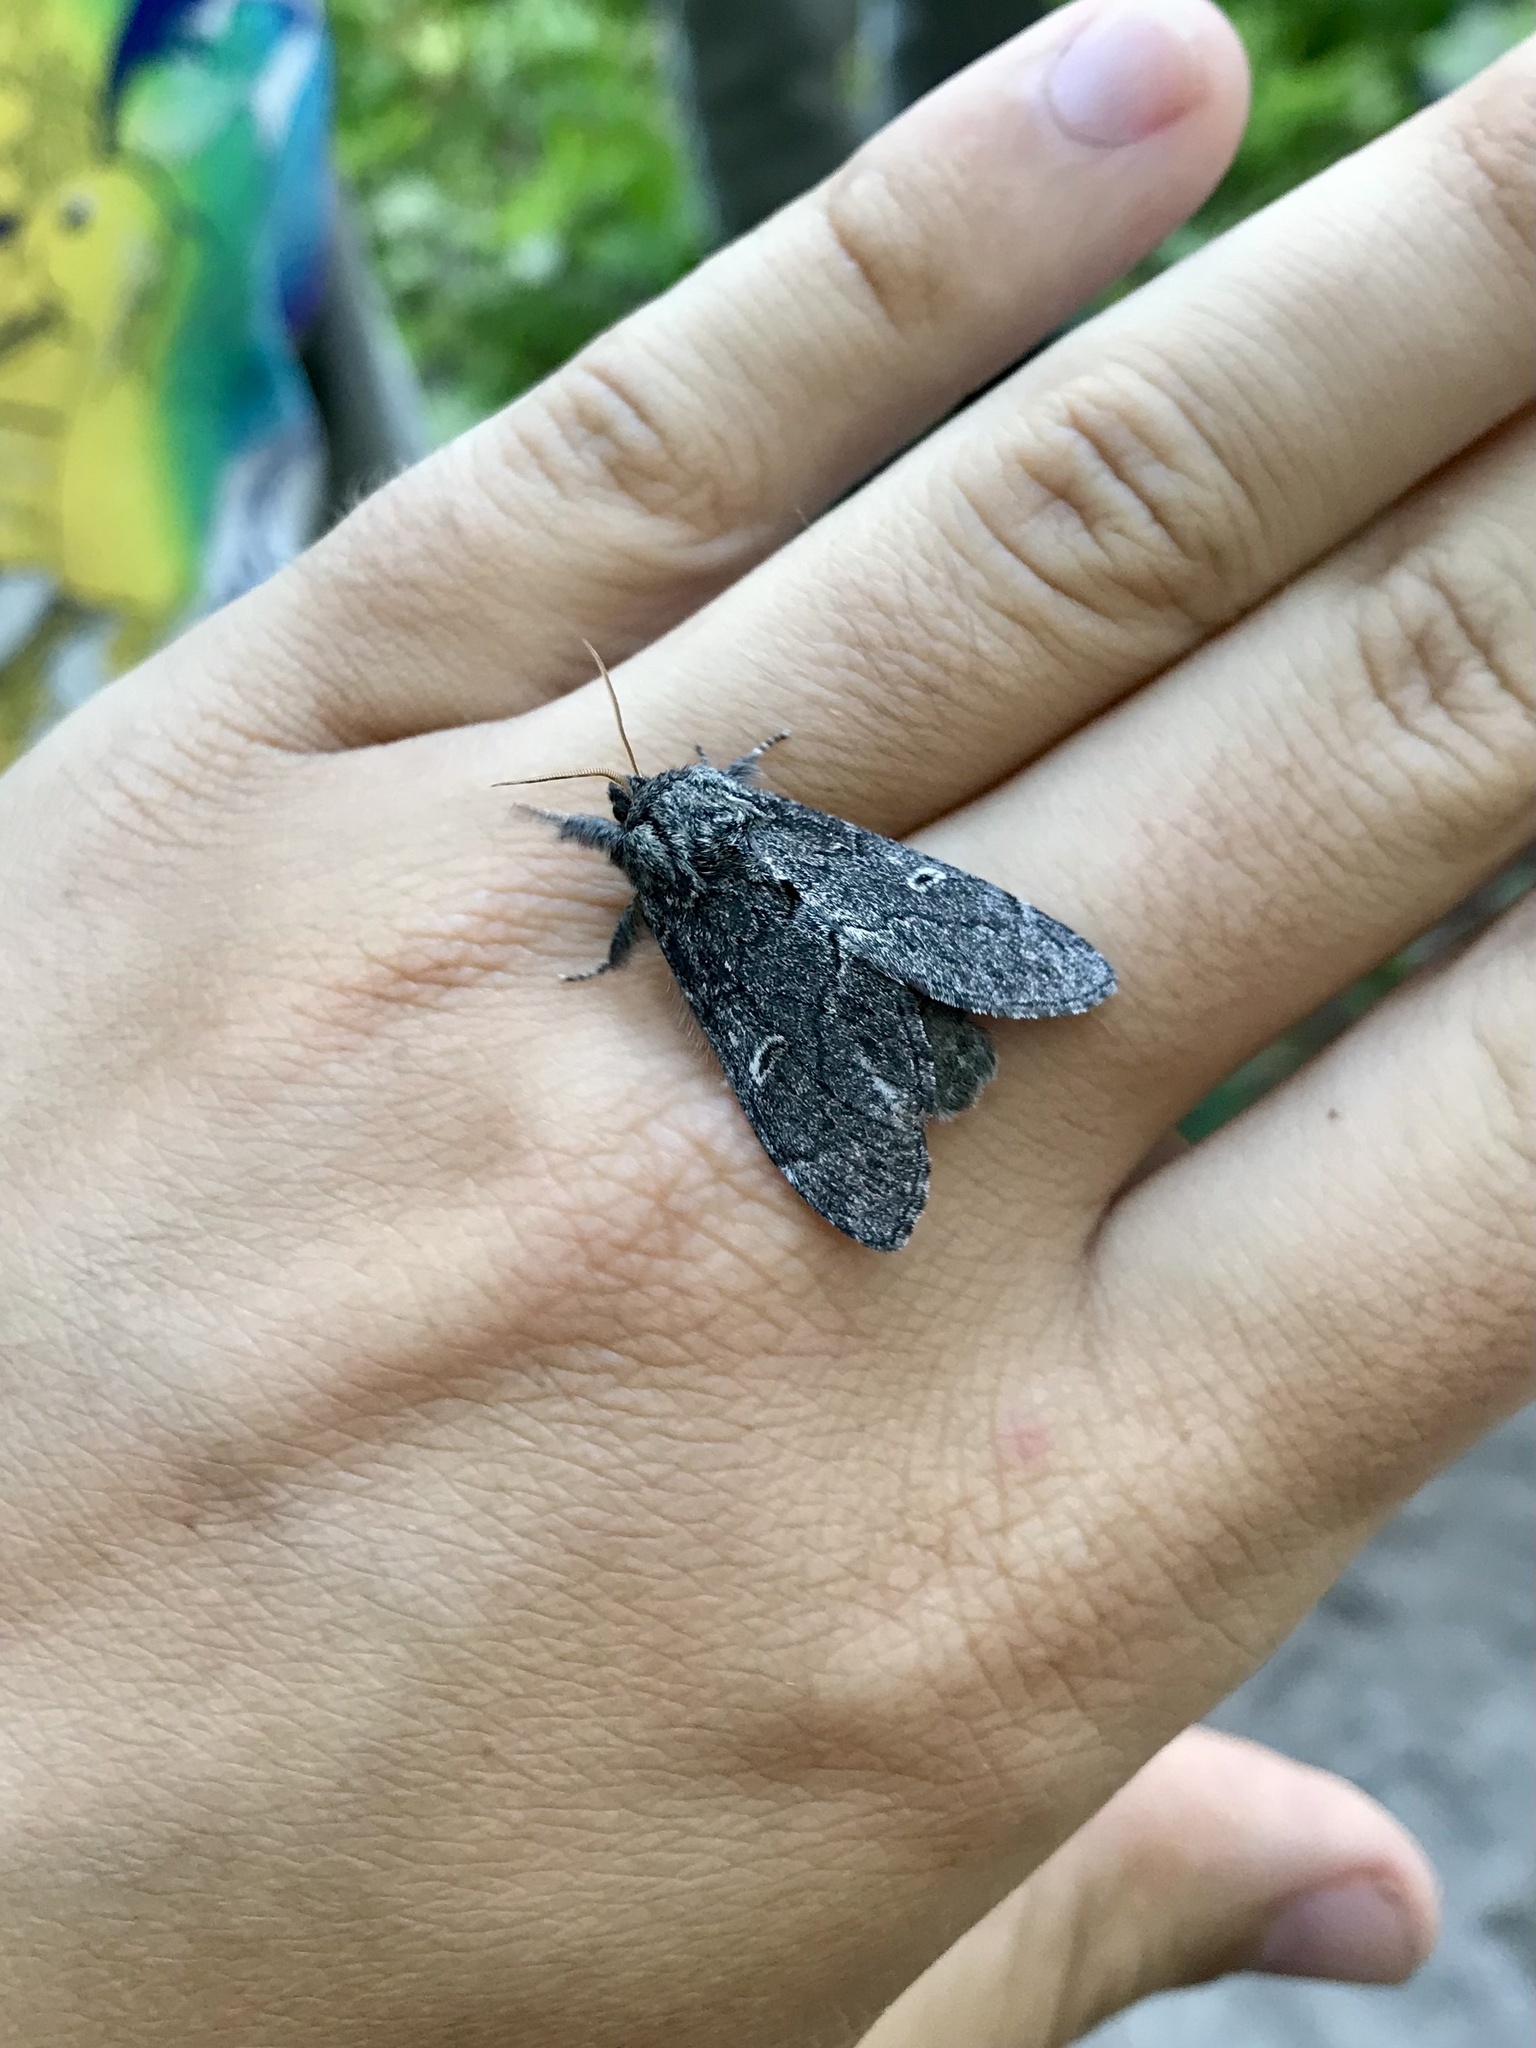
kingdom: Animalia
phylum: Arthropoda
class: Insecta
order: Lepidoptera
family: Notodontidae
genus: Notodonta
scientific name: Notodonta torva
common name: Large dark prominent
